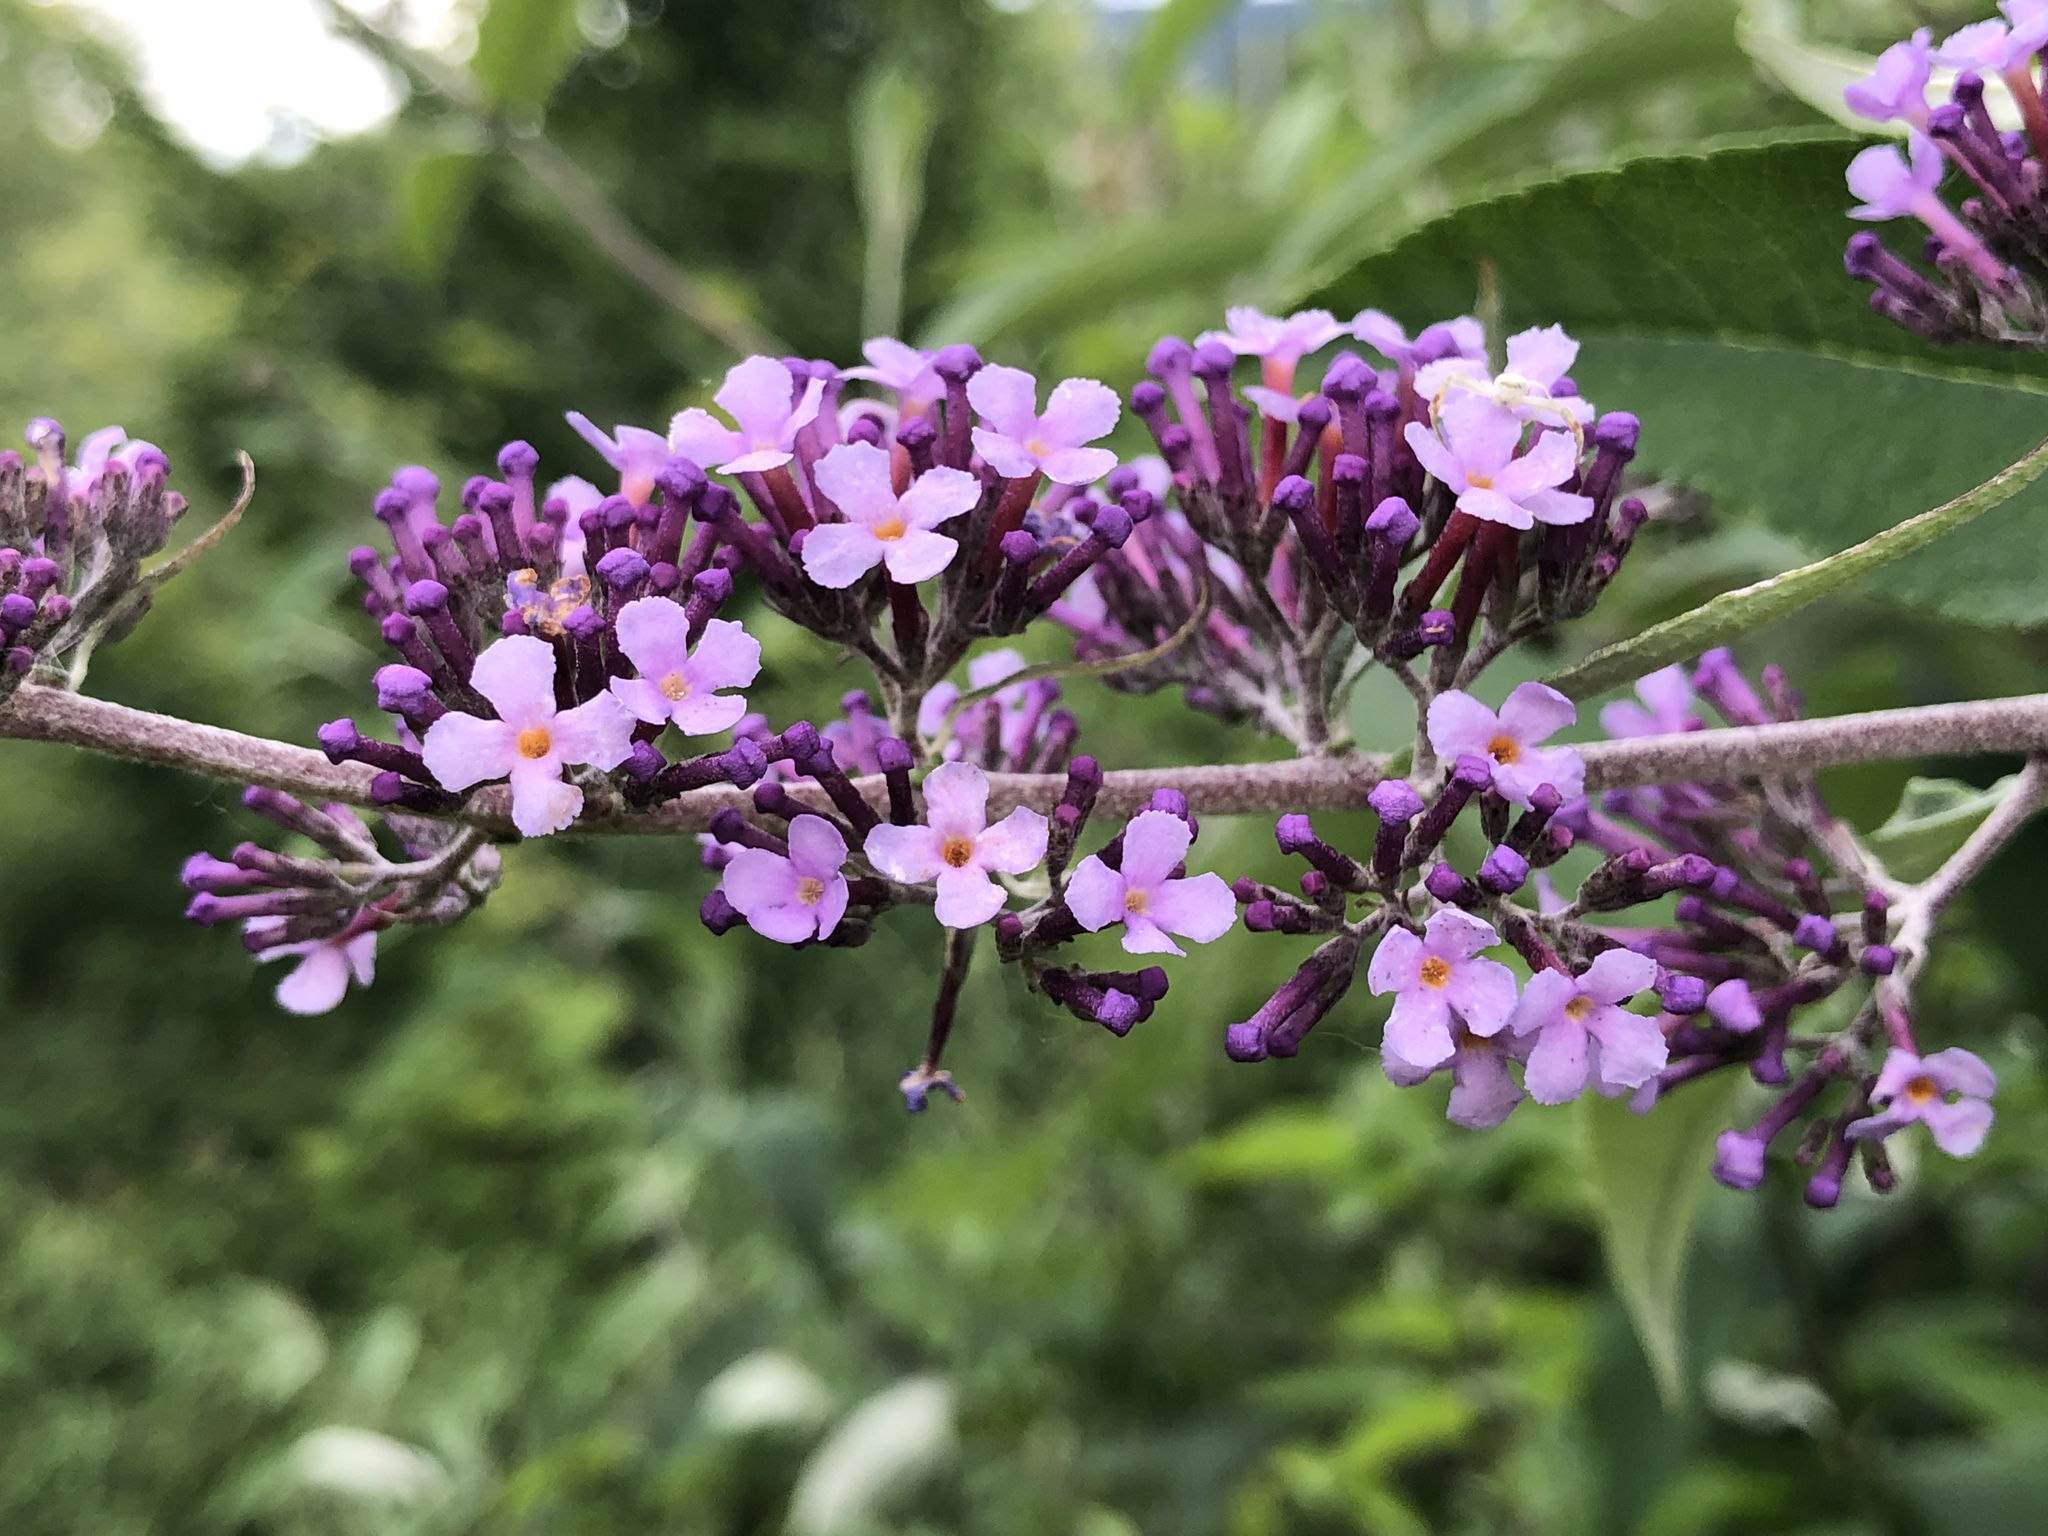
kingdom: Plantae
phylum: Tracheophyta
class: Magnoliopsida
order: Lamiales
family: Scrophulariaceae
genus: Buddleja
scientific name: Buddleja davidii
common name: Butterfly-bush
